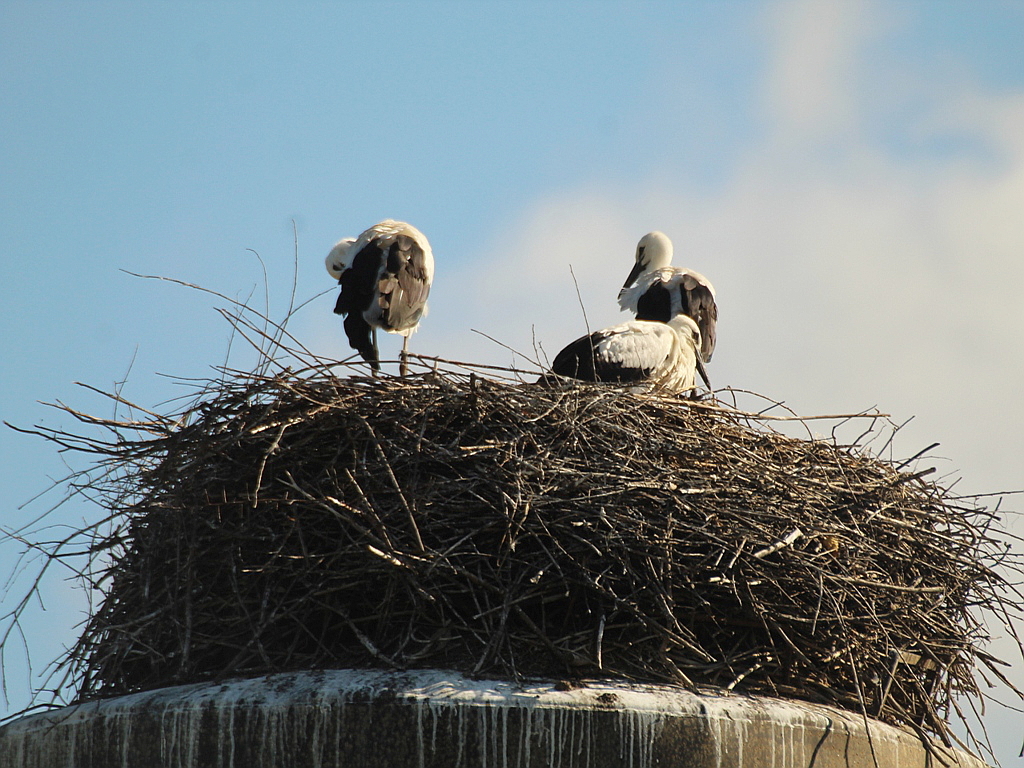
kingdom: Animalia
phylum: Chordata
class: Aves
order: Ciconiiformes
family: Ciconiidae
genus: Ciconia
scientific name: Ciconia ciconia
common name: White stork
